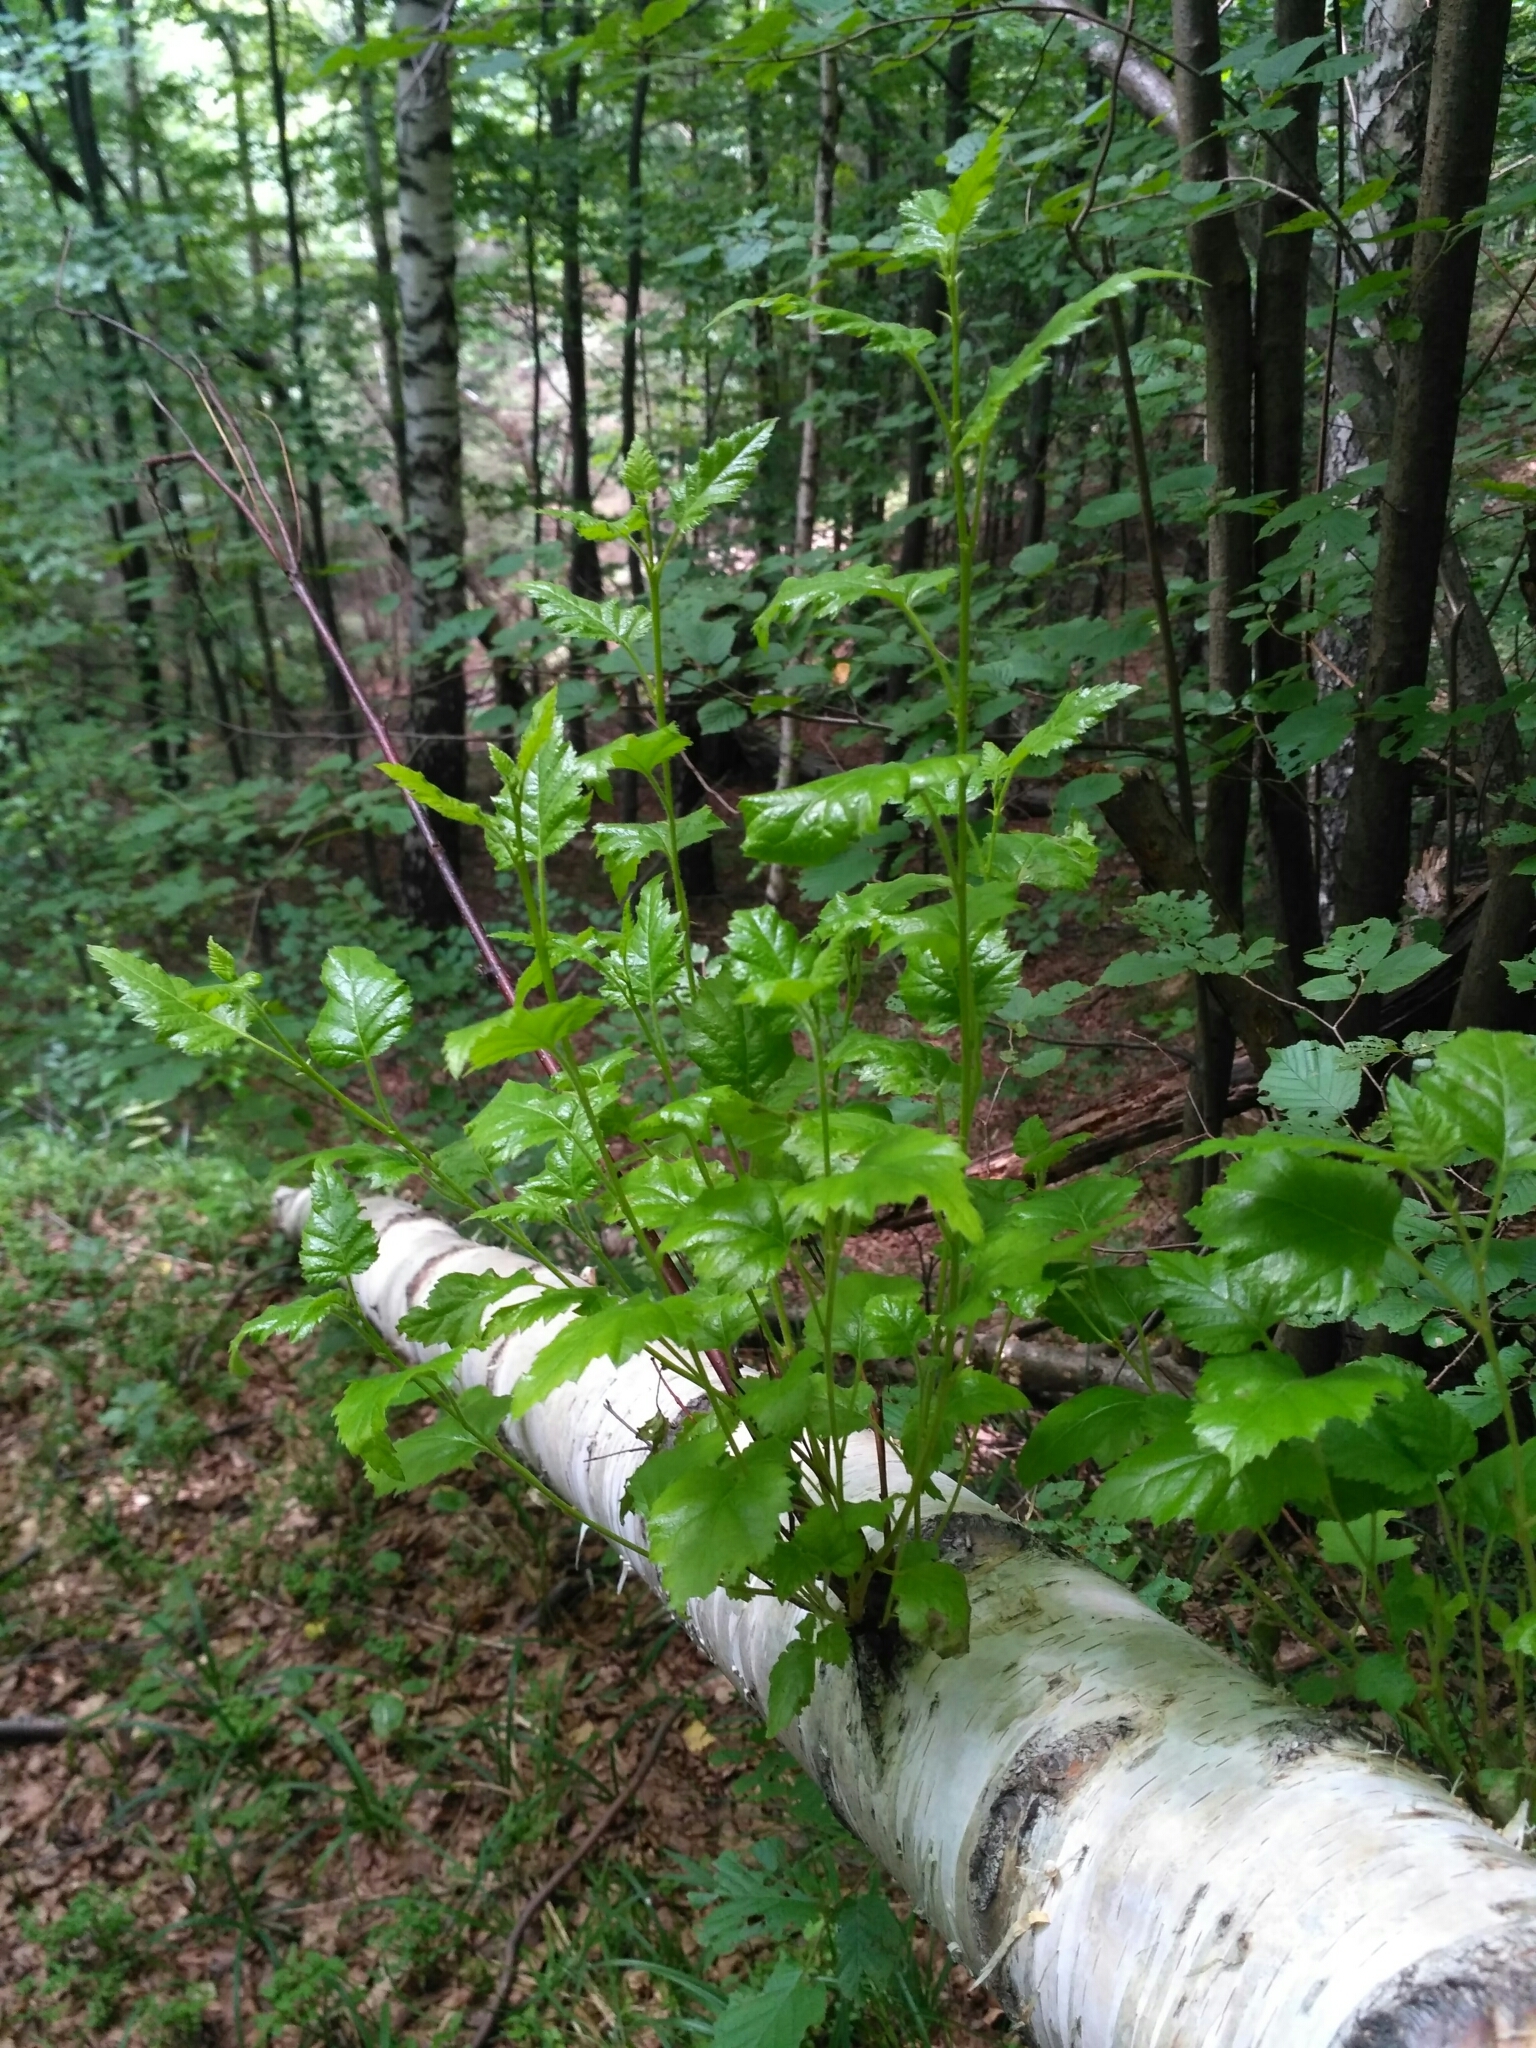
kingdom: Plantae
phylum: Tracheophyta
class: Magnoliopsida
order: Fagales
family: Betulaceae
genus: Betula
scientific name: Betula pubescens
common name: Downy birch
